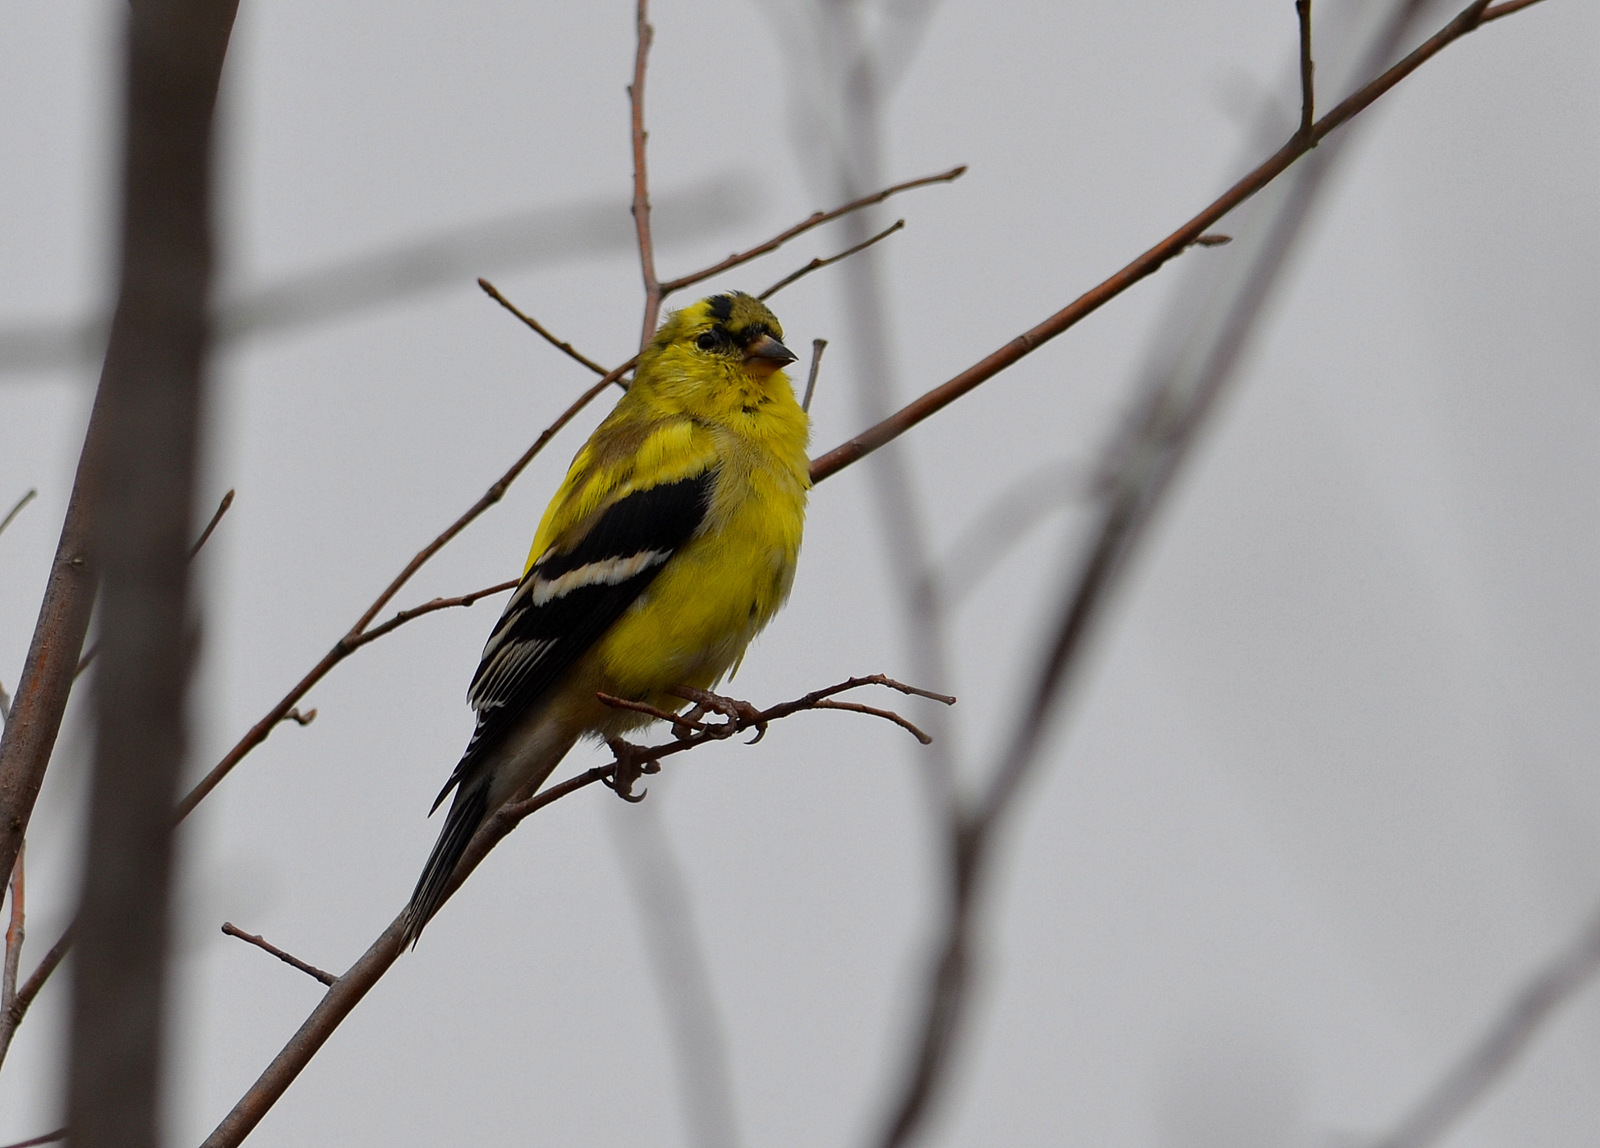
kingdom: Animalia
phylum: Chordata
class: Aves
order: Passeriformes
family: Fringillidae
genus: Spinus
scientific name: Spinus tristis
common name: American goldfinch
